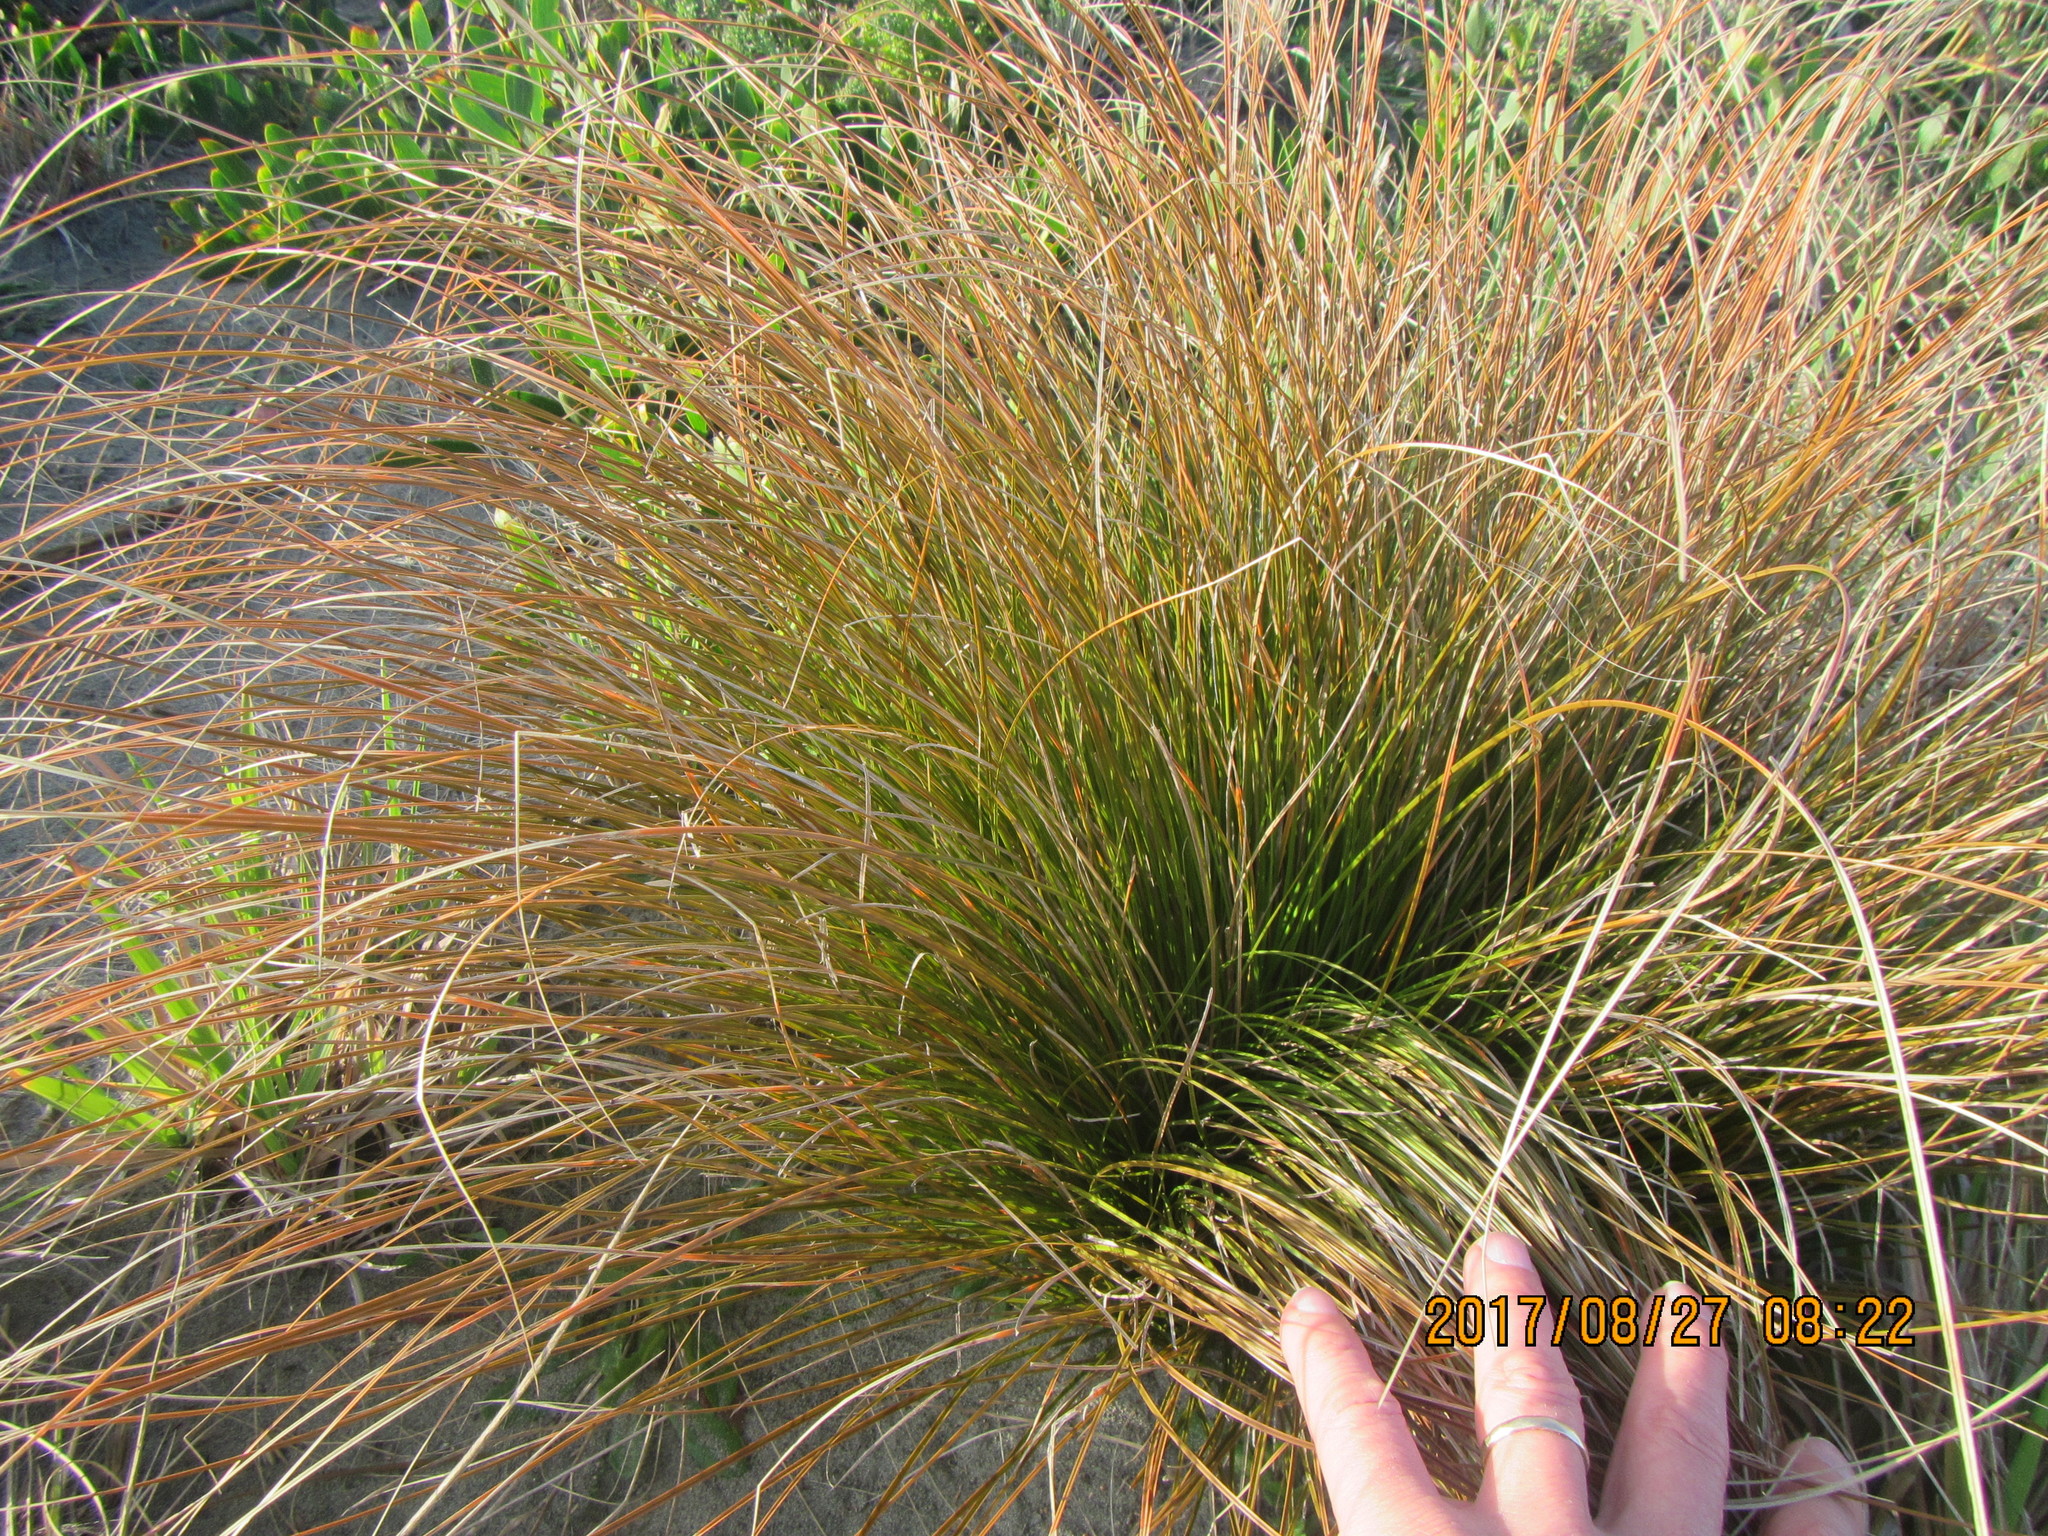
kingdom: Plantae
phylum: Tracheophyta
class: Liliopsida
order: Poales
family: Cyperaceae
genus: Carex
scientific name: Carex testacea
